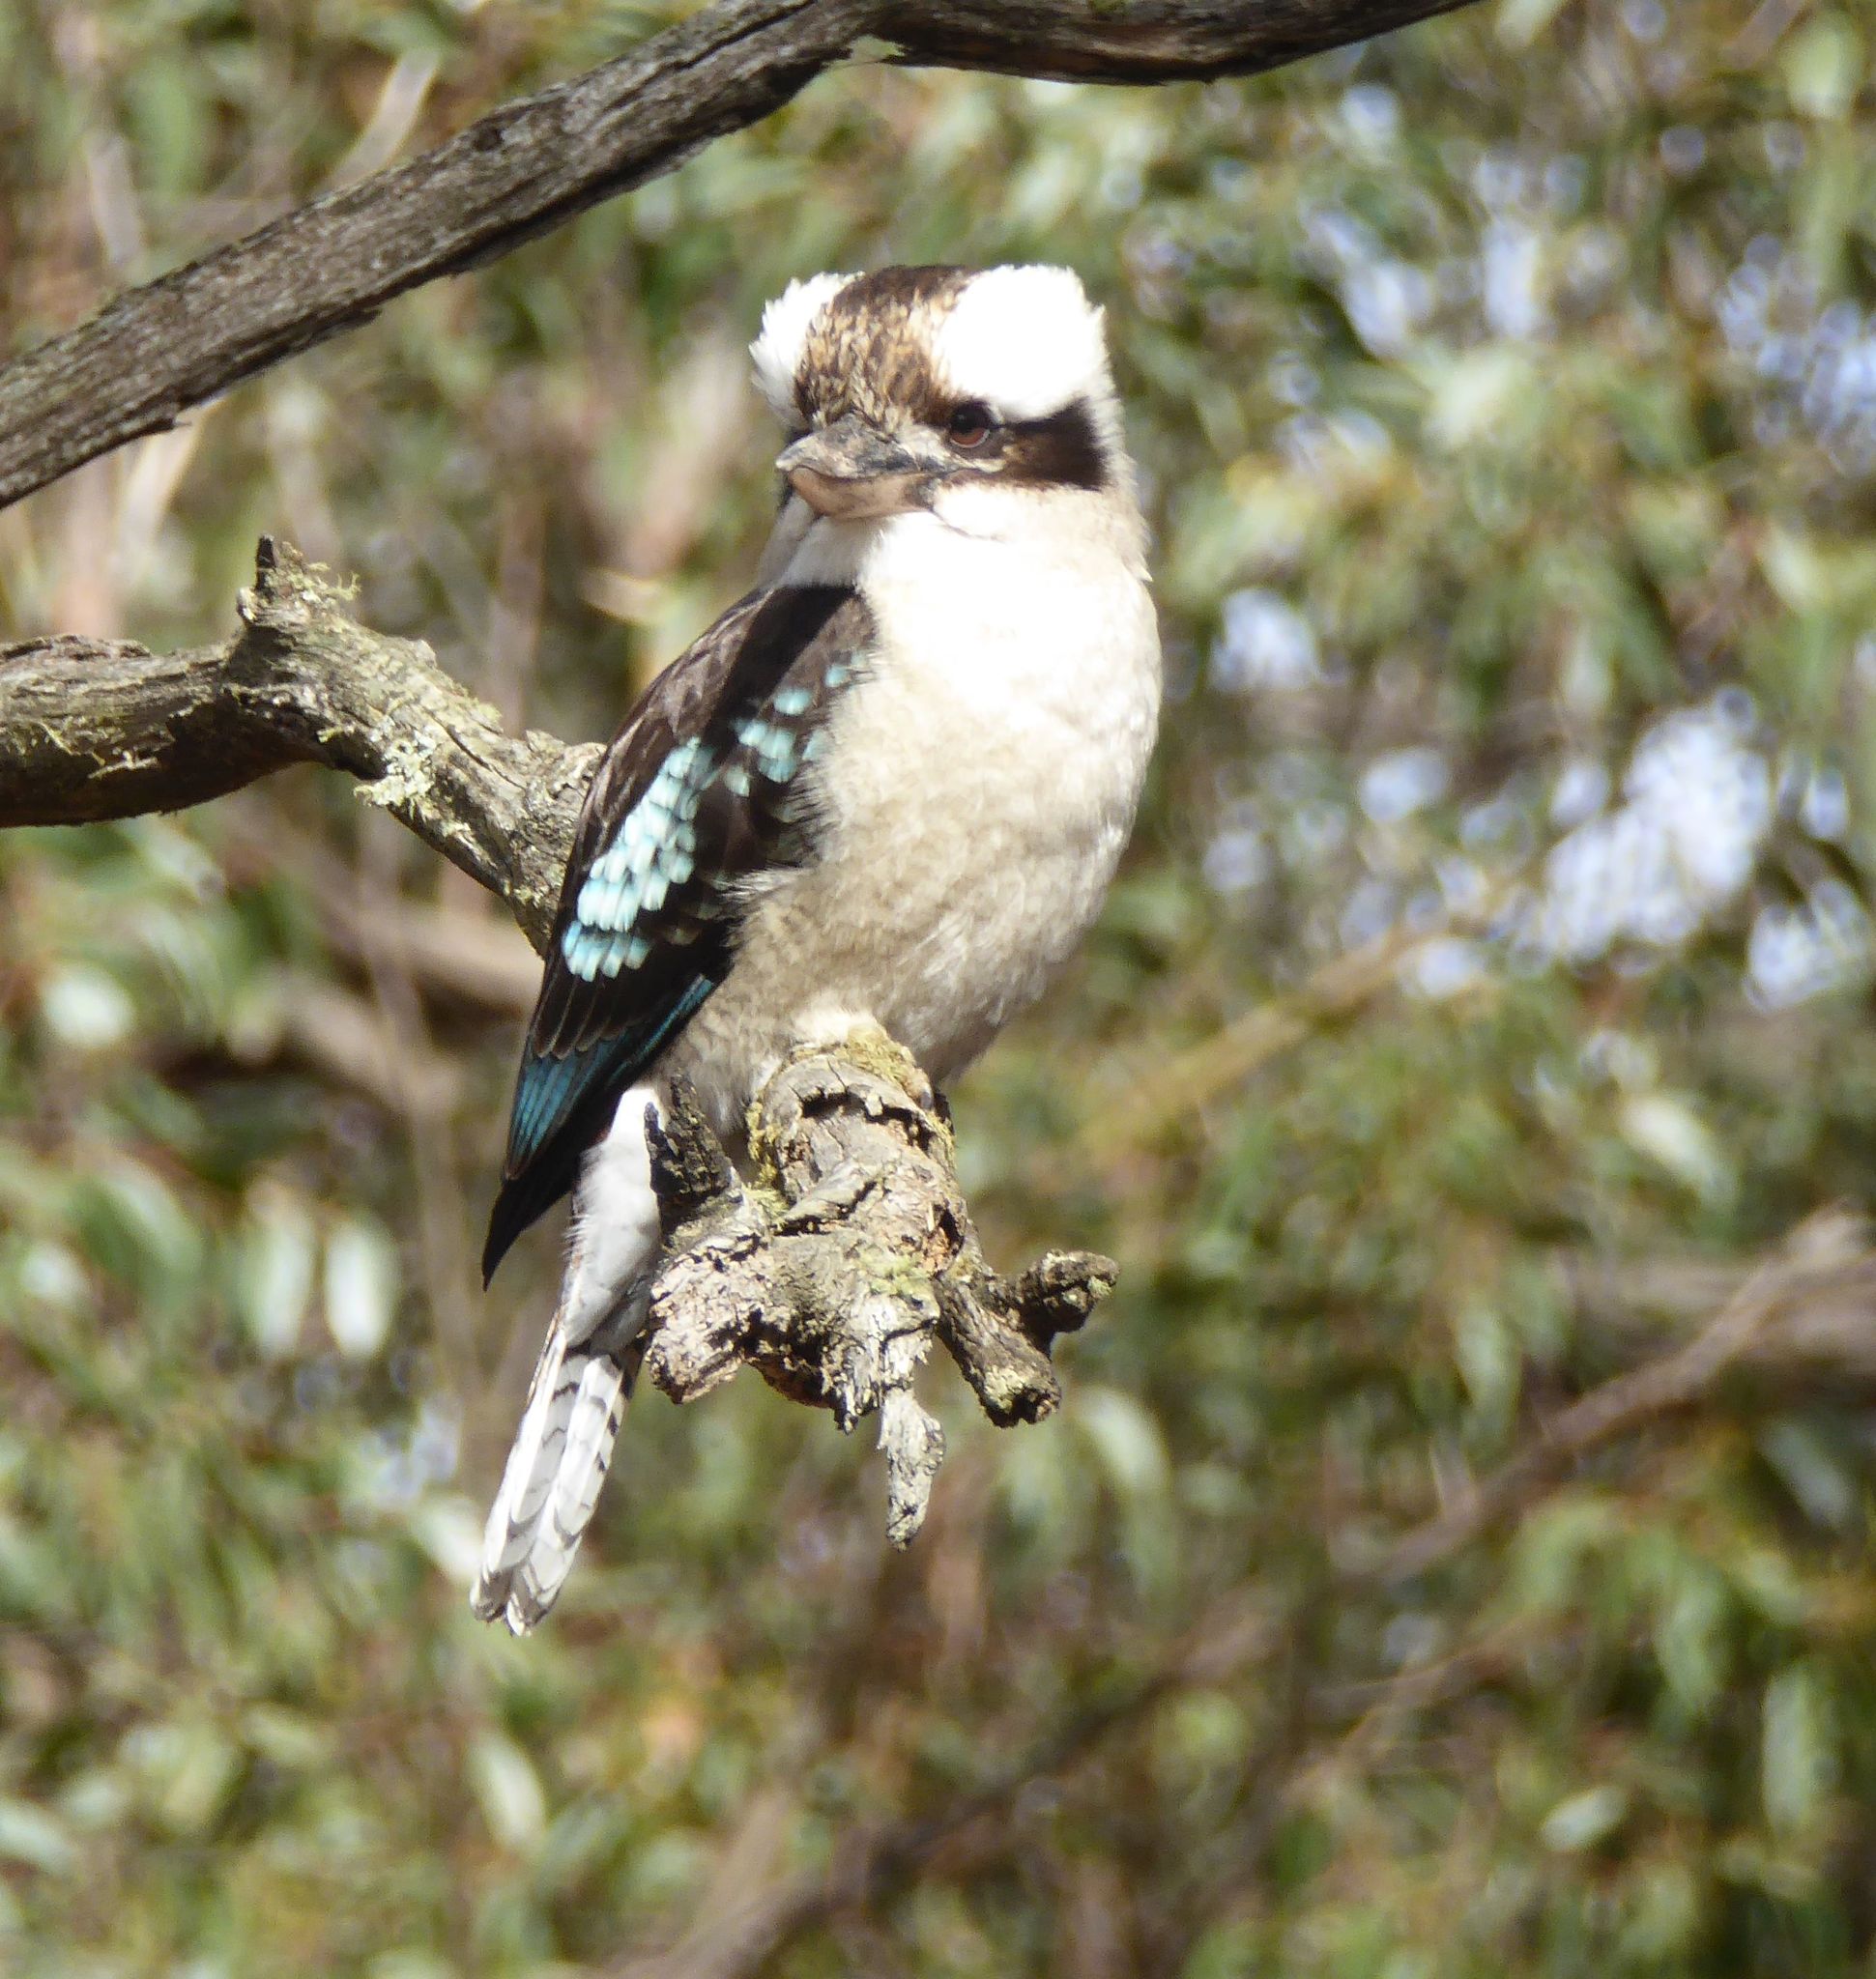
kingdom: Animalia
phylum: Chordata
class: Aves
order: Coraciiformes
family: Alcedinidae
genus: Dacelo
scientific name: Dacelo novaeguineae
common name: Laughing kookaburra
